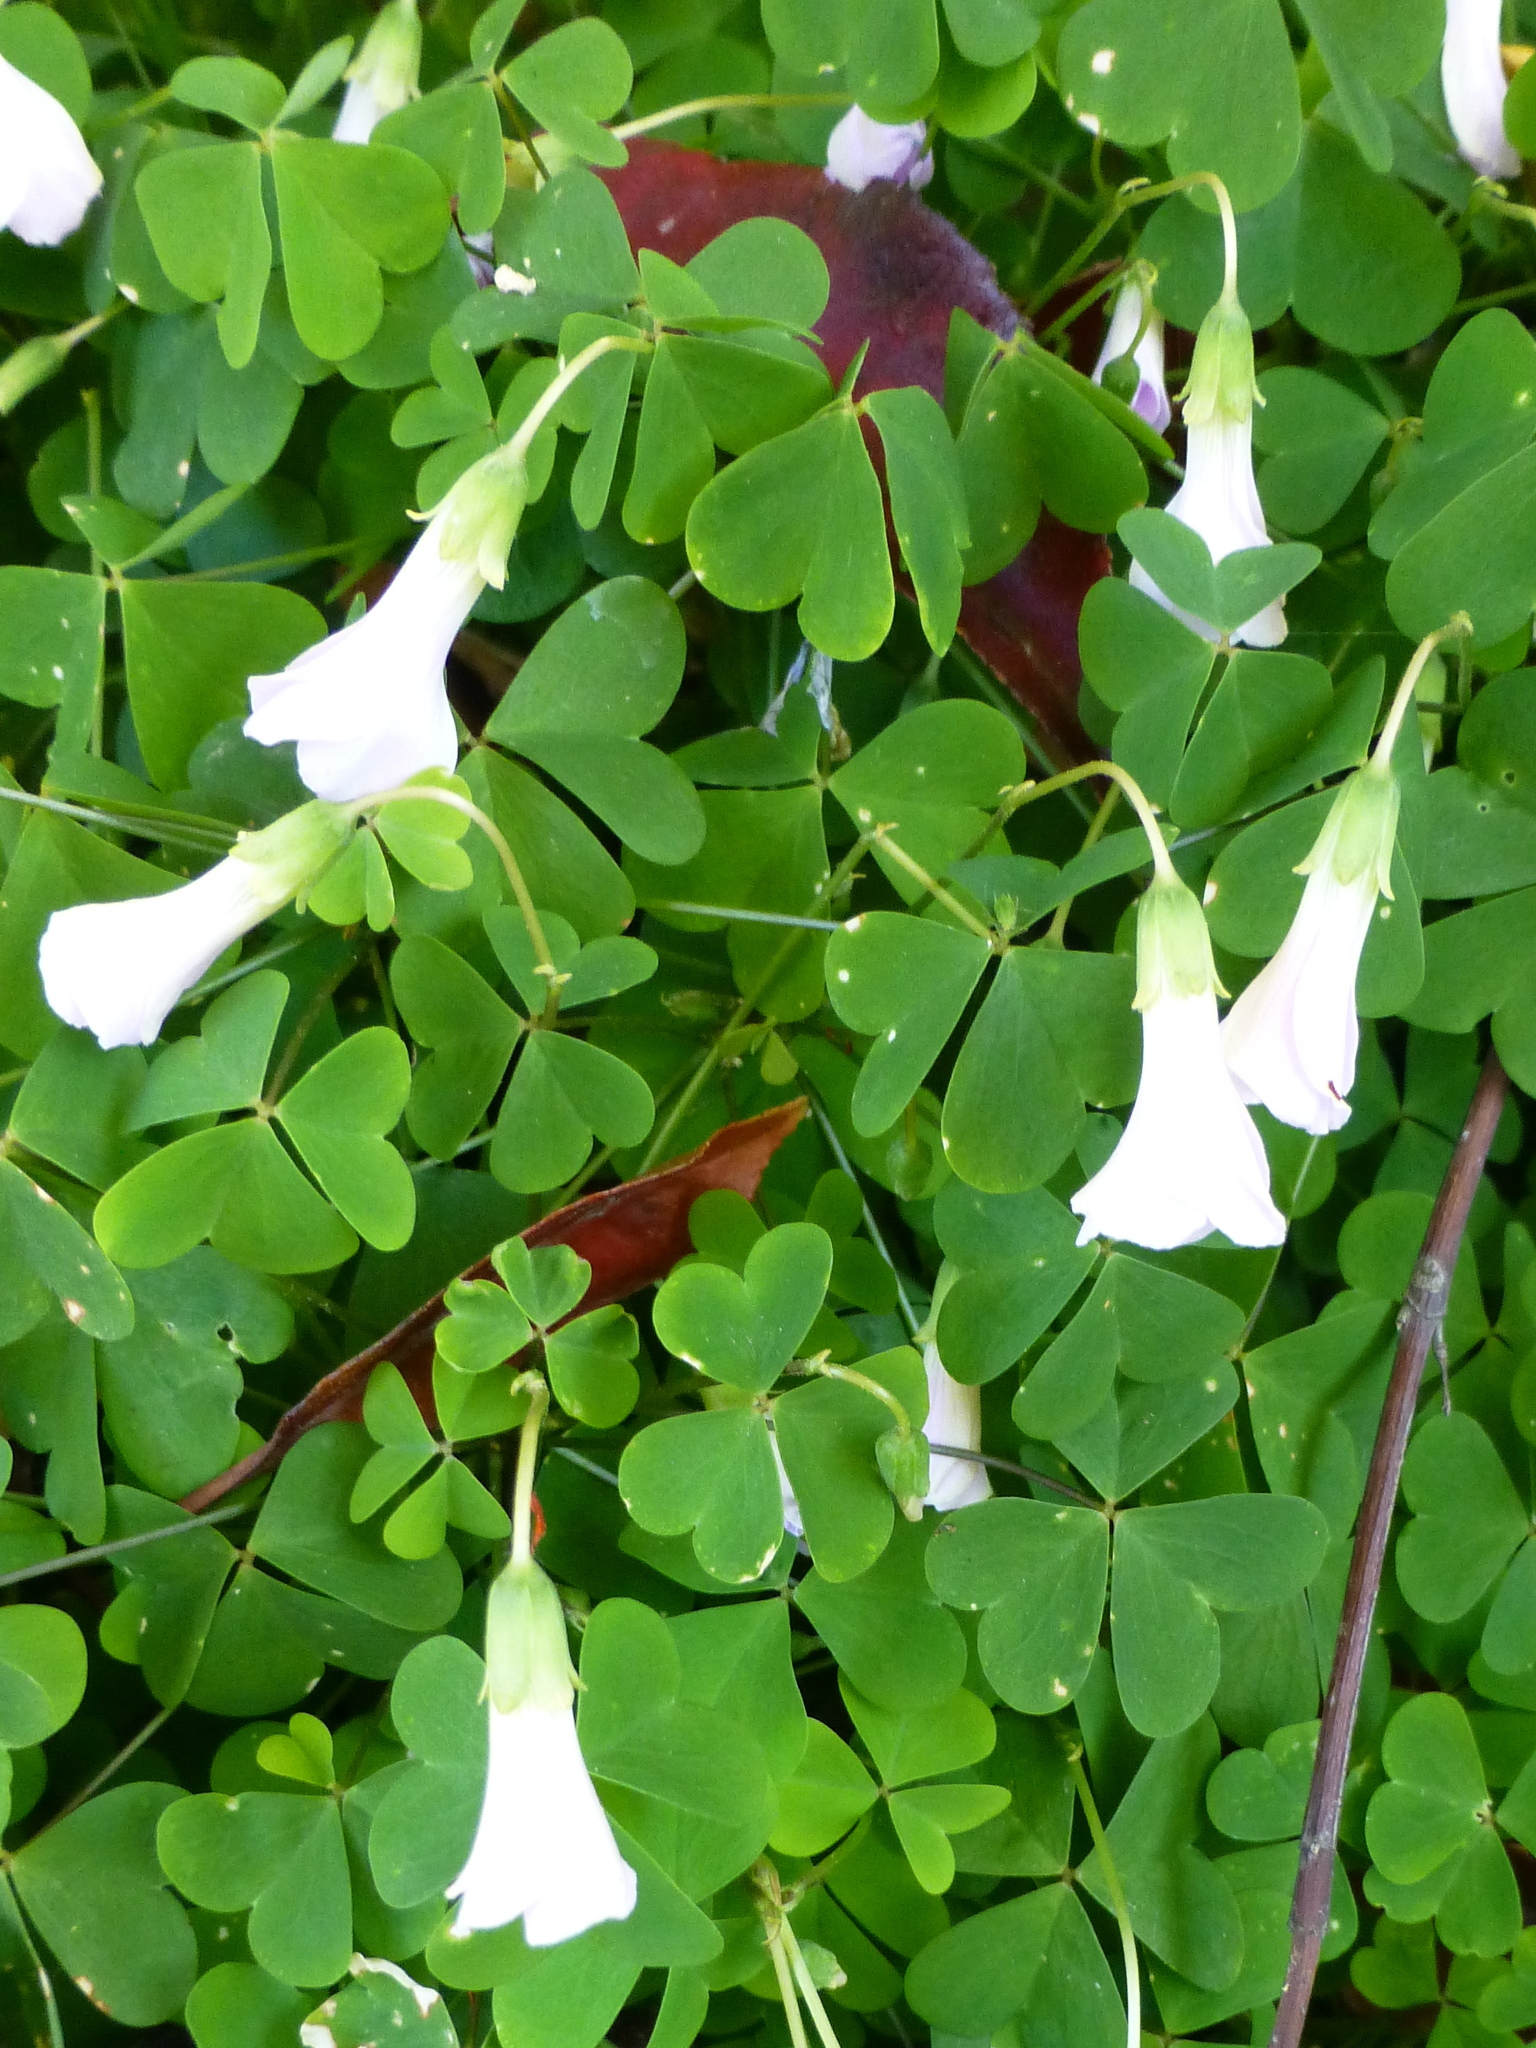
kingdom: Plantae
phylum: Tracheophyta
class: Magnoliopsida
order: Oxalidales
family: Oxalidaceae
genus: Oxalis
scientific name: Oxalis incarnata
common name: Pale pink-sorrel
